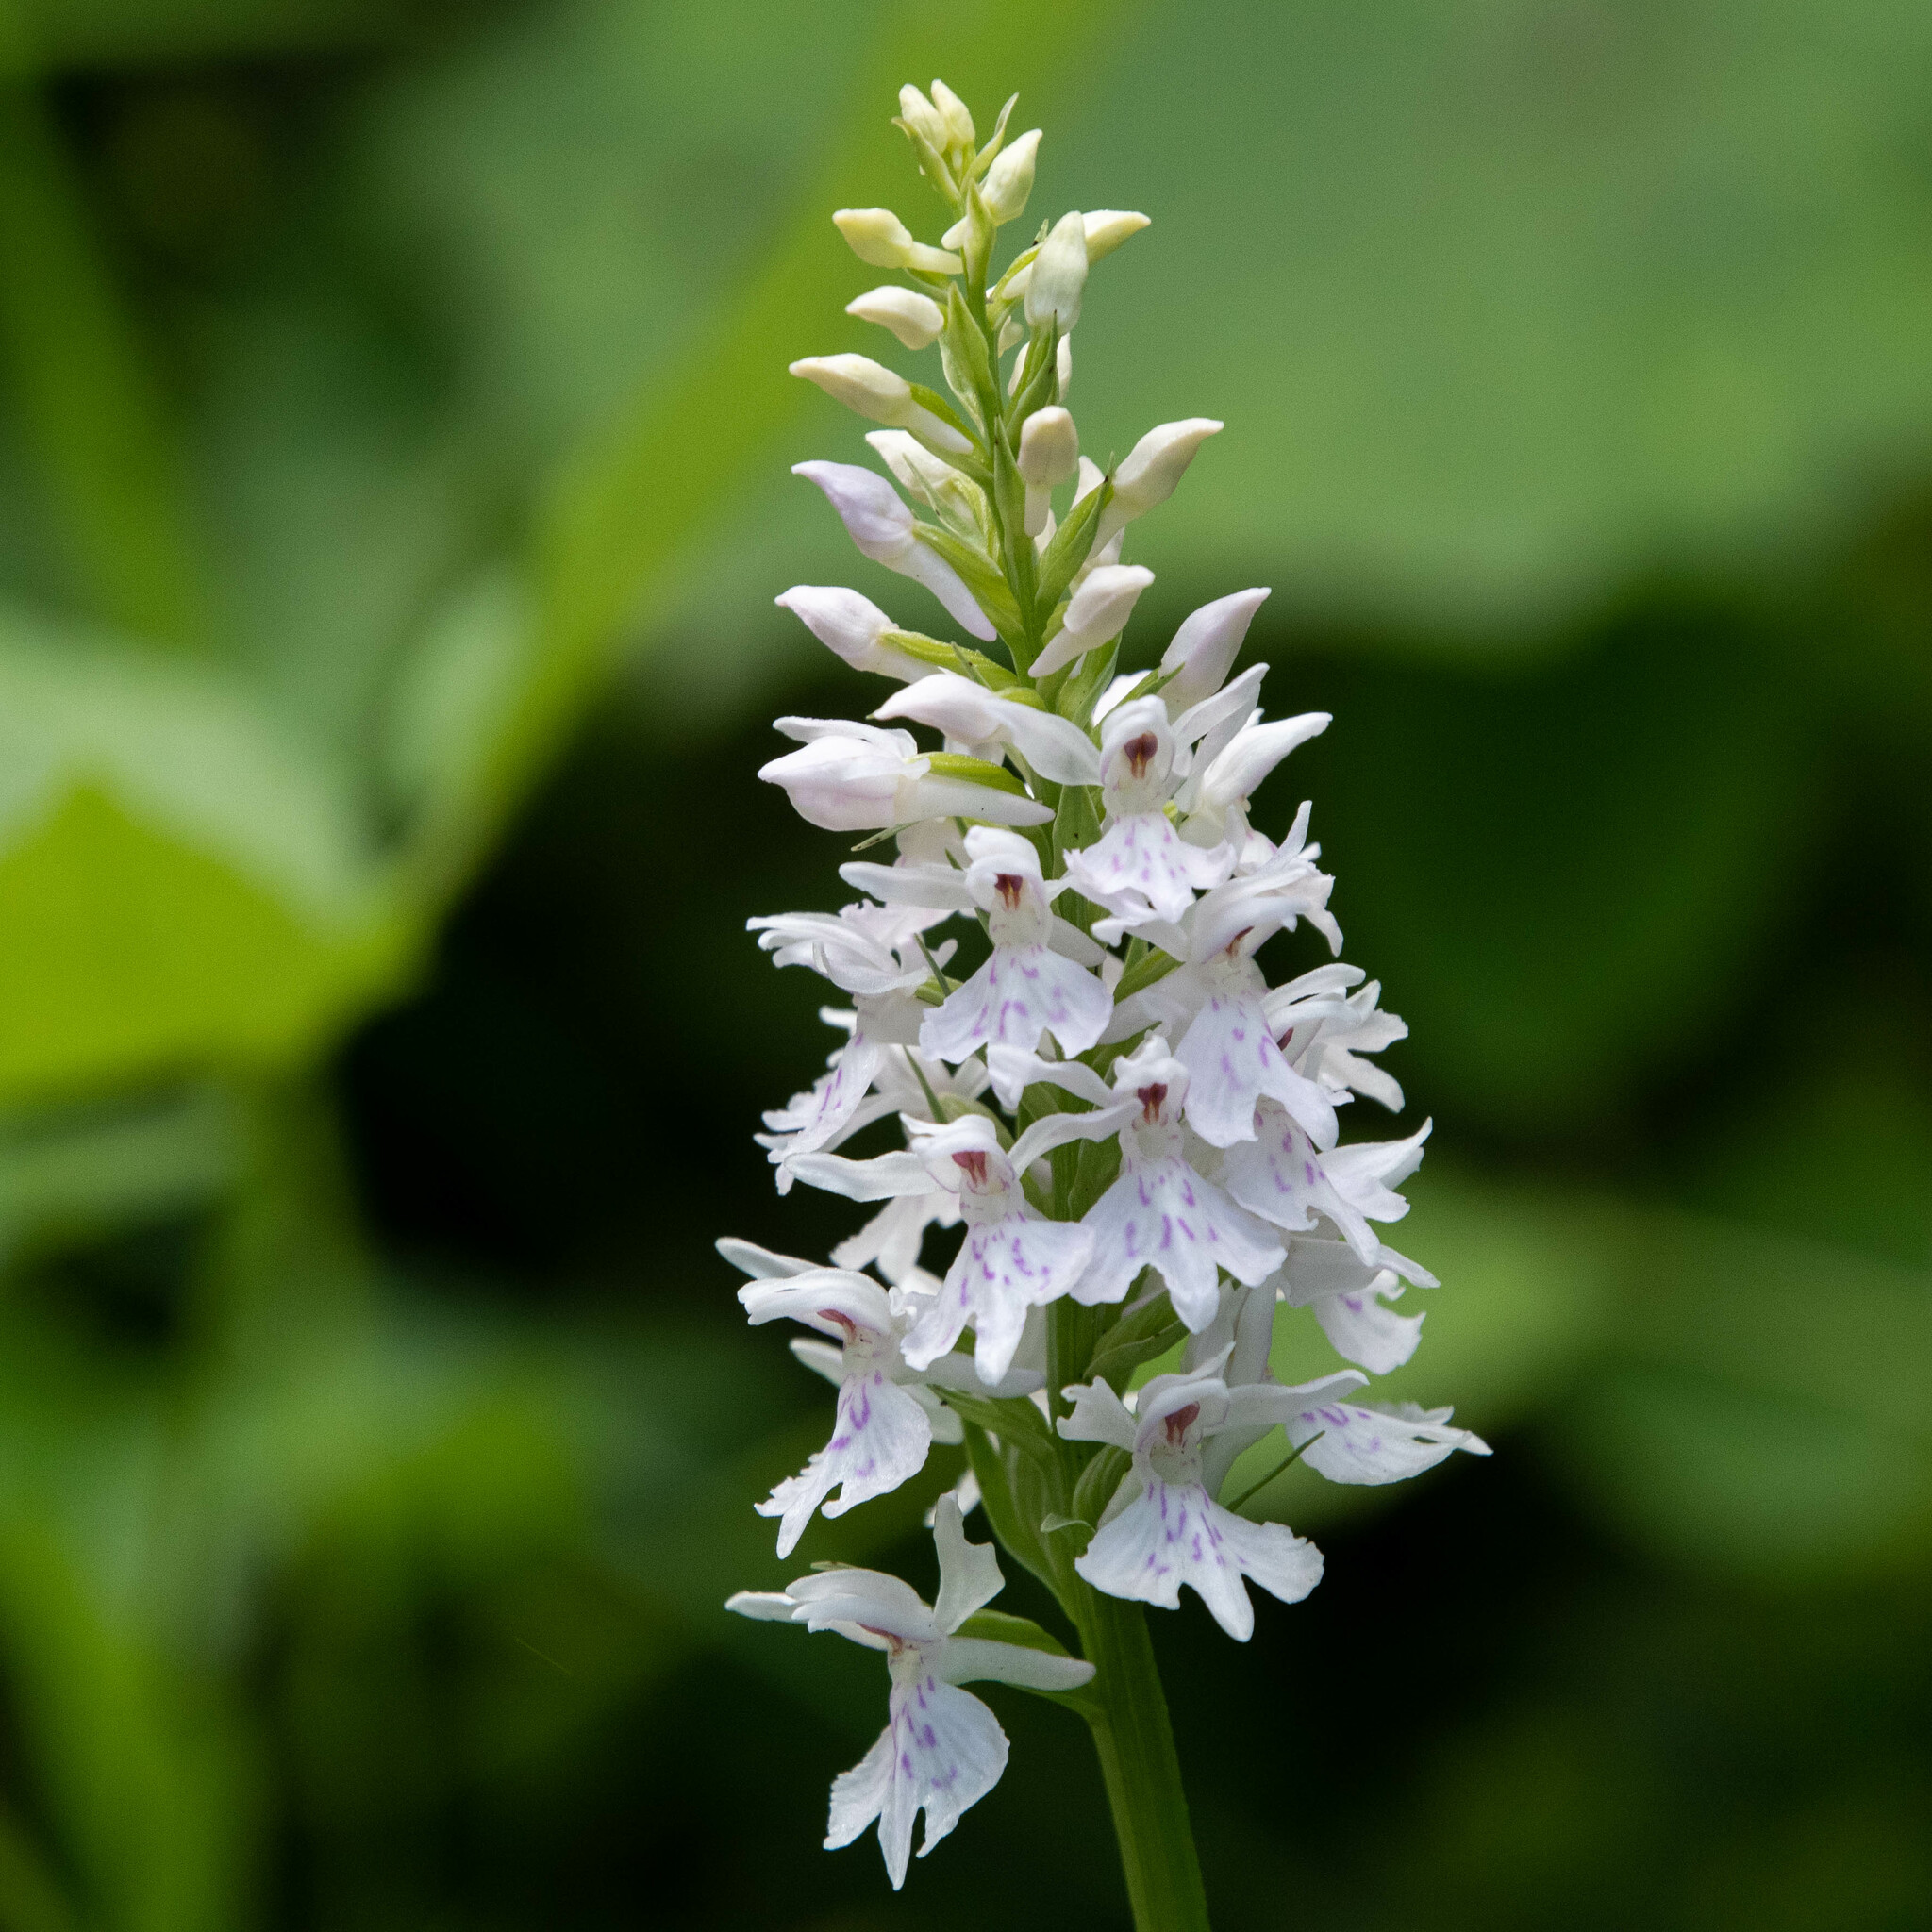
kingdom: Plantae
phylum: Tracheophyta
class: Liliopsida
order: Asparagales
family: Orchidaceae
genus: Dactylorhiza
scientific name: Dactylorhiza maculata
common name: Heath spotted-orchid
